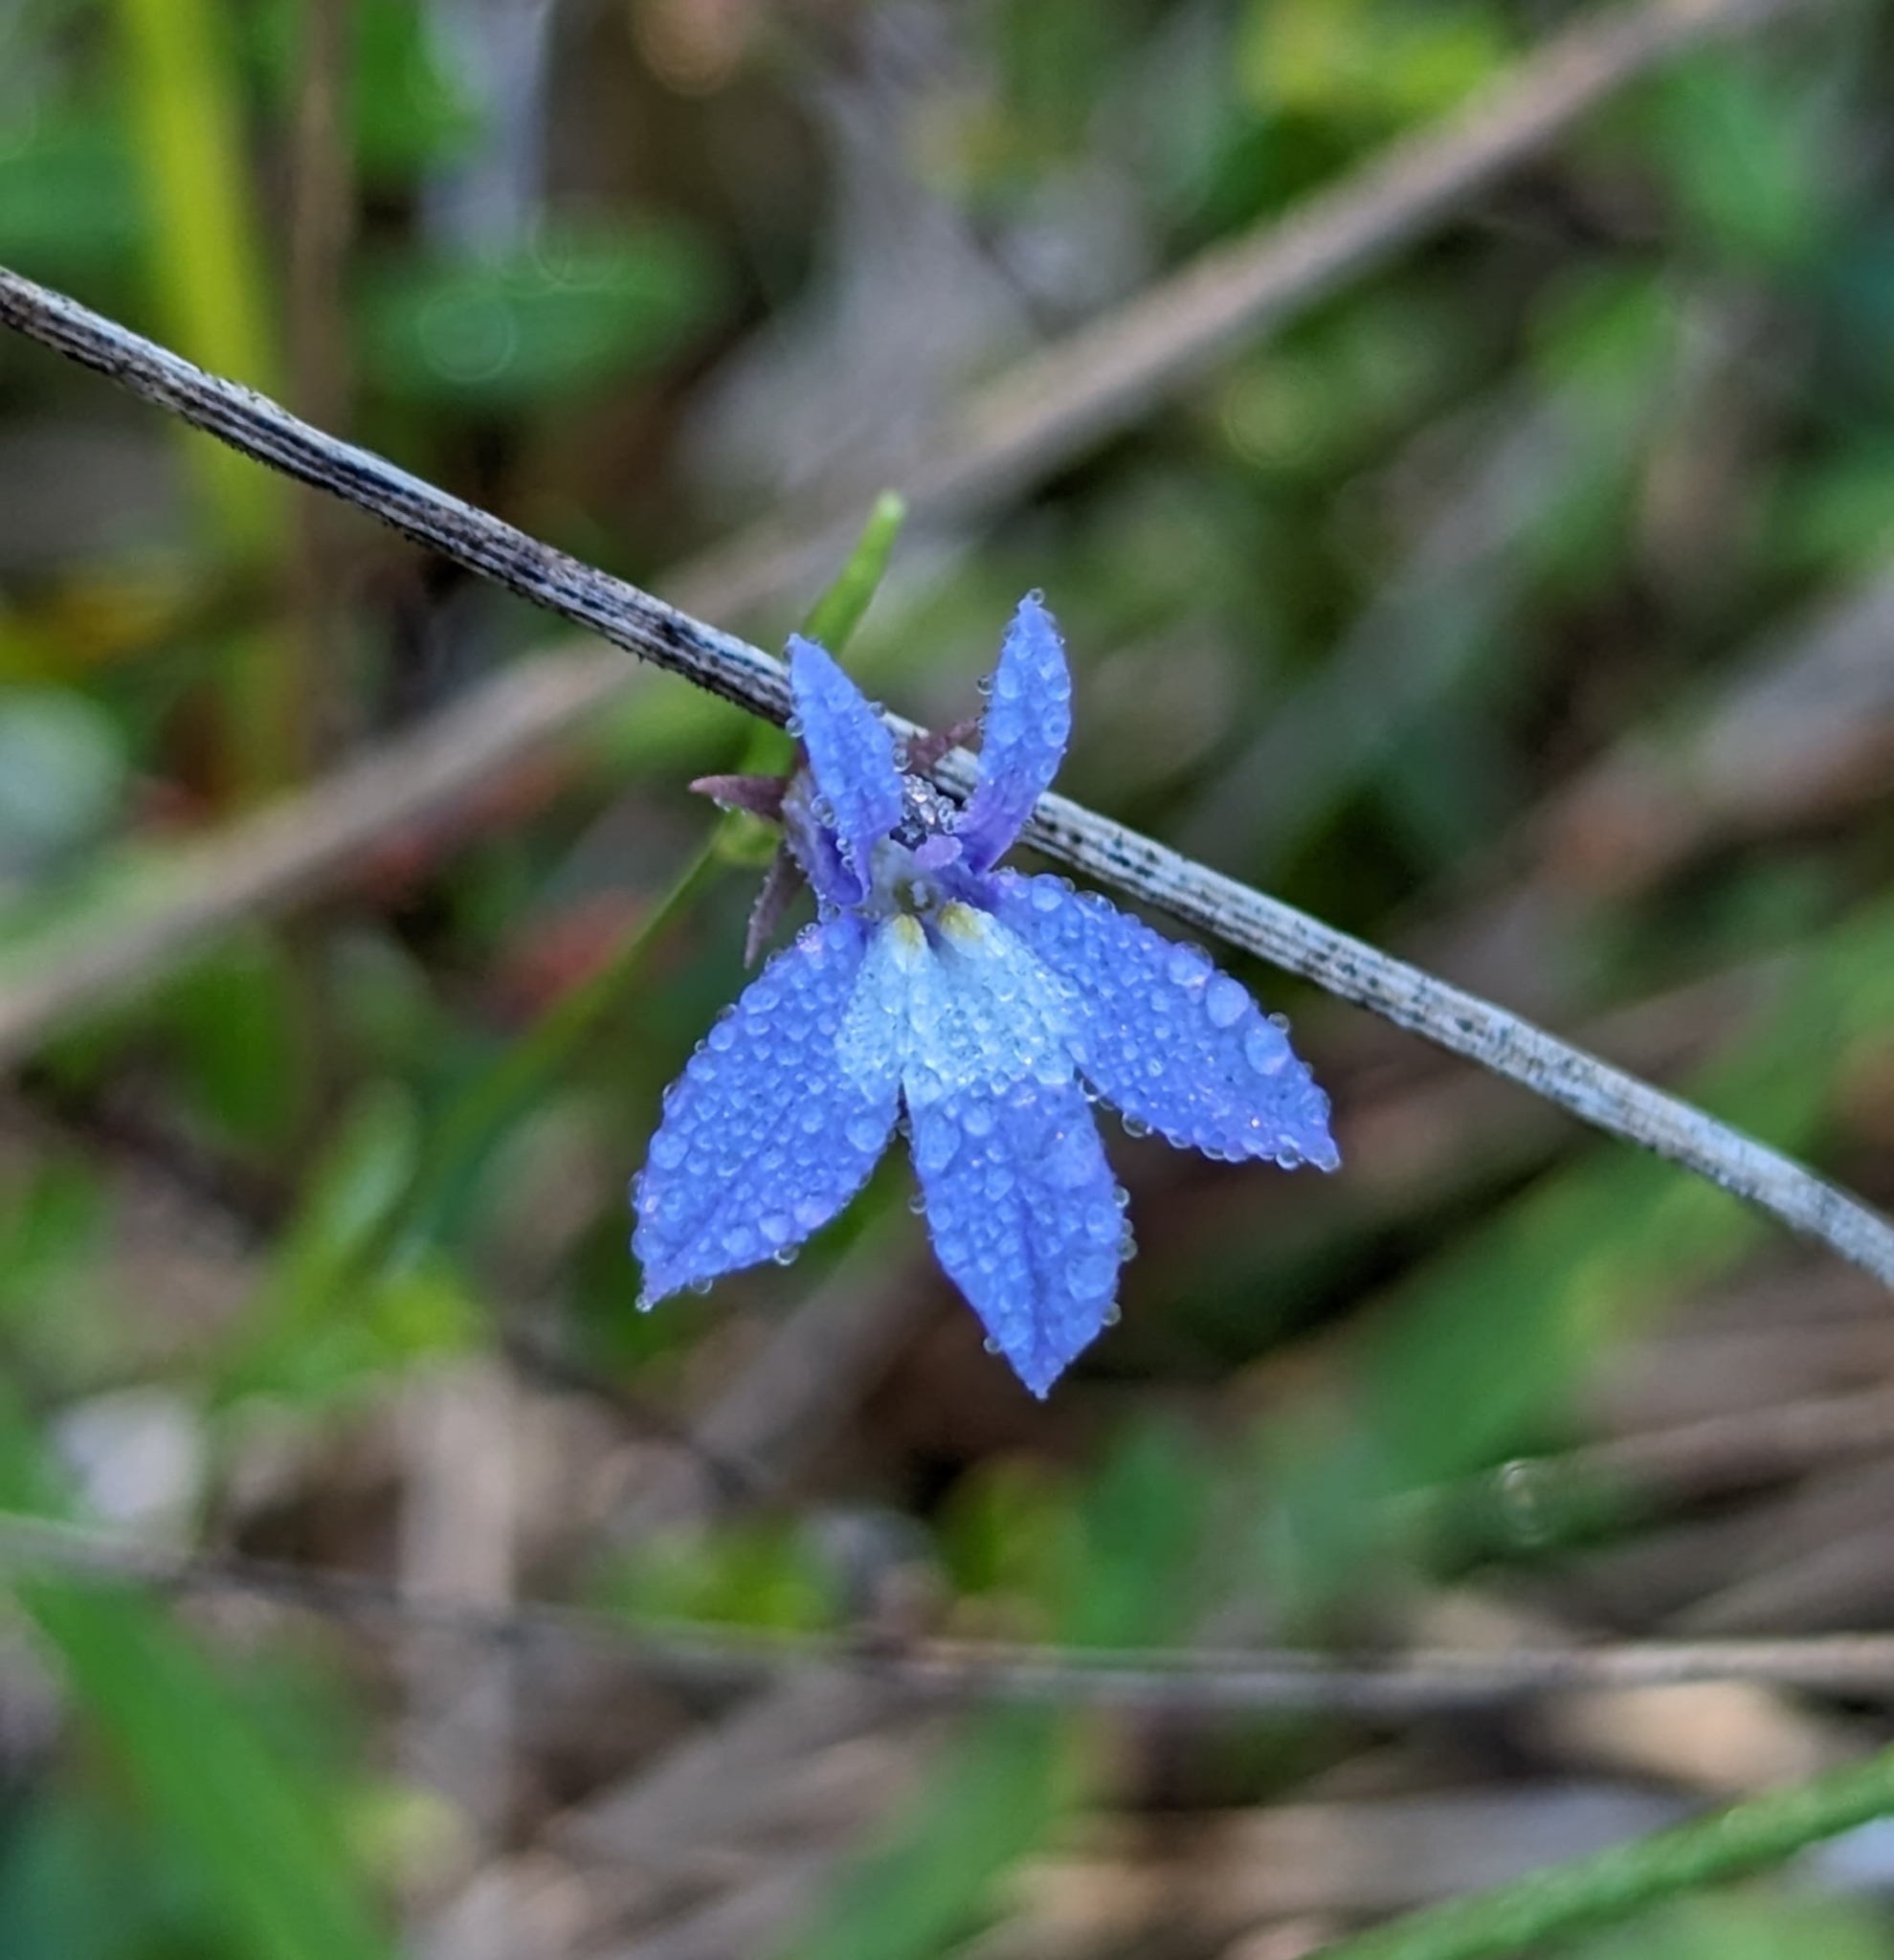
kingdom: Plantae
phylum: Tracheophyta
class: Magnoliopsida
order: Asterales
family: Campanulaceae
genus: Lobelia
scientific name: Lobelia kalmii
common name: Kalm's lobelia
